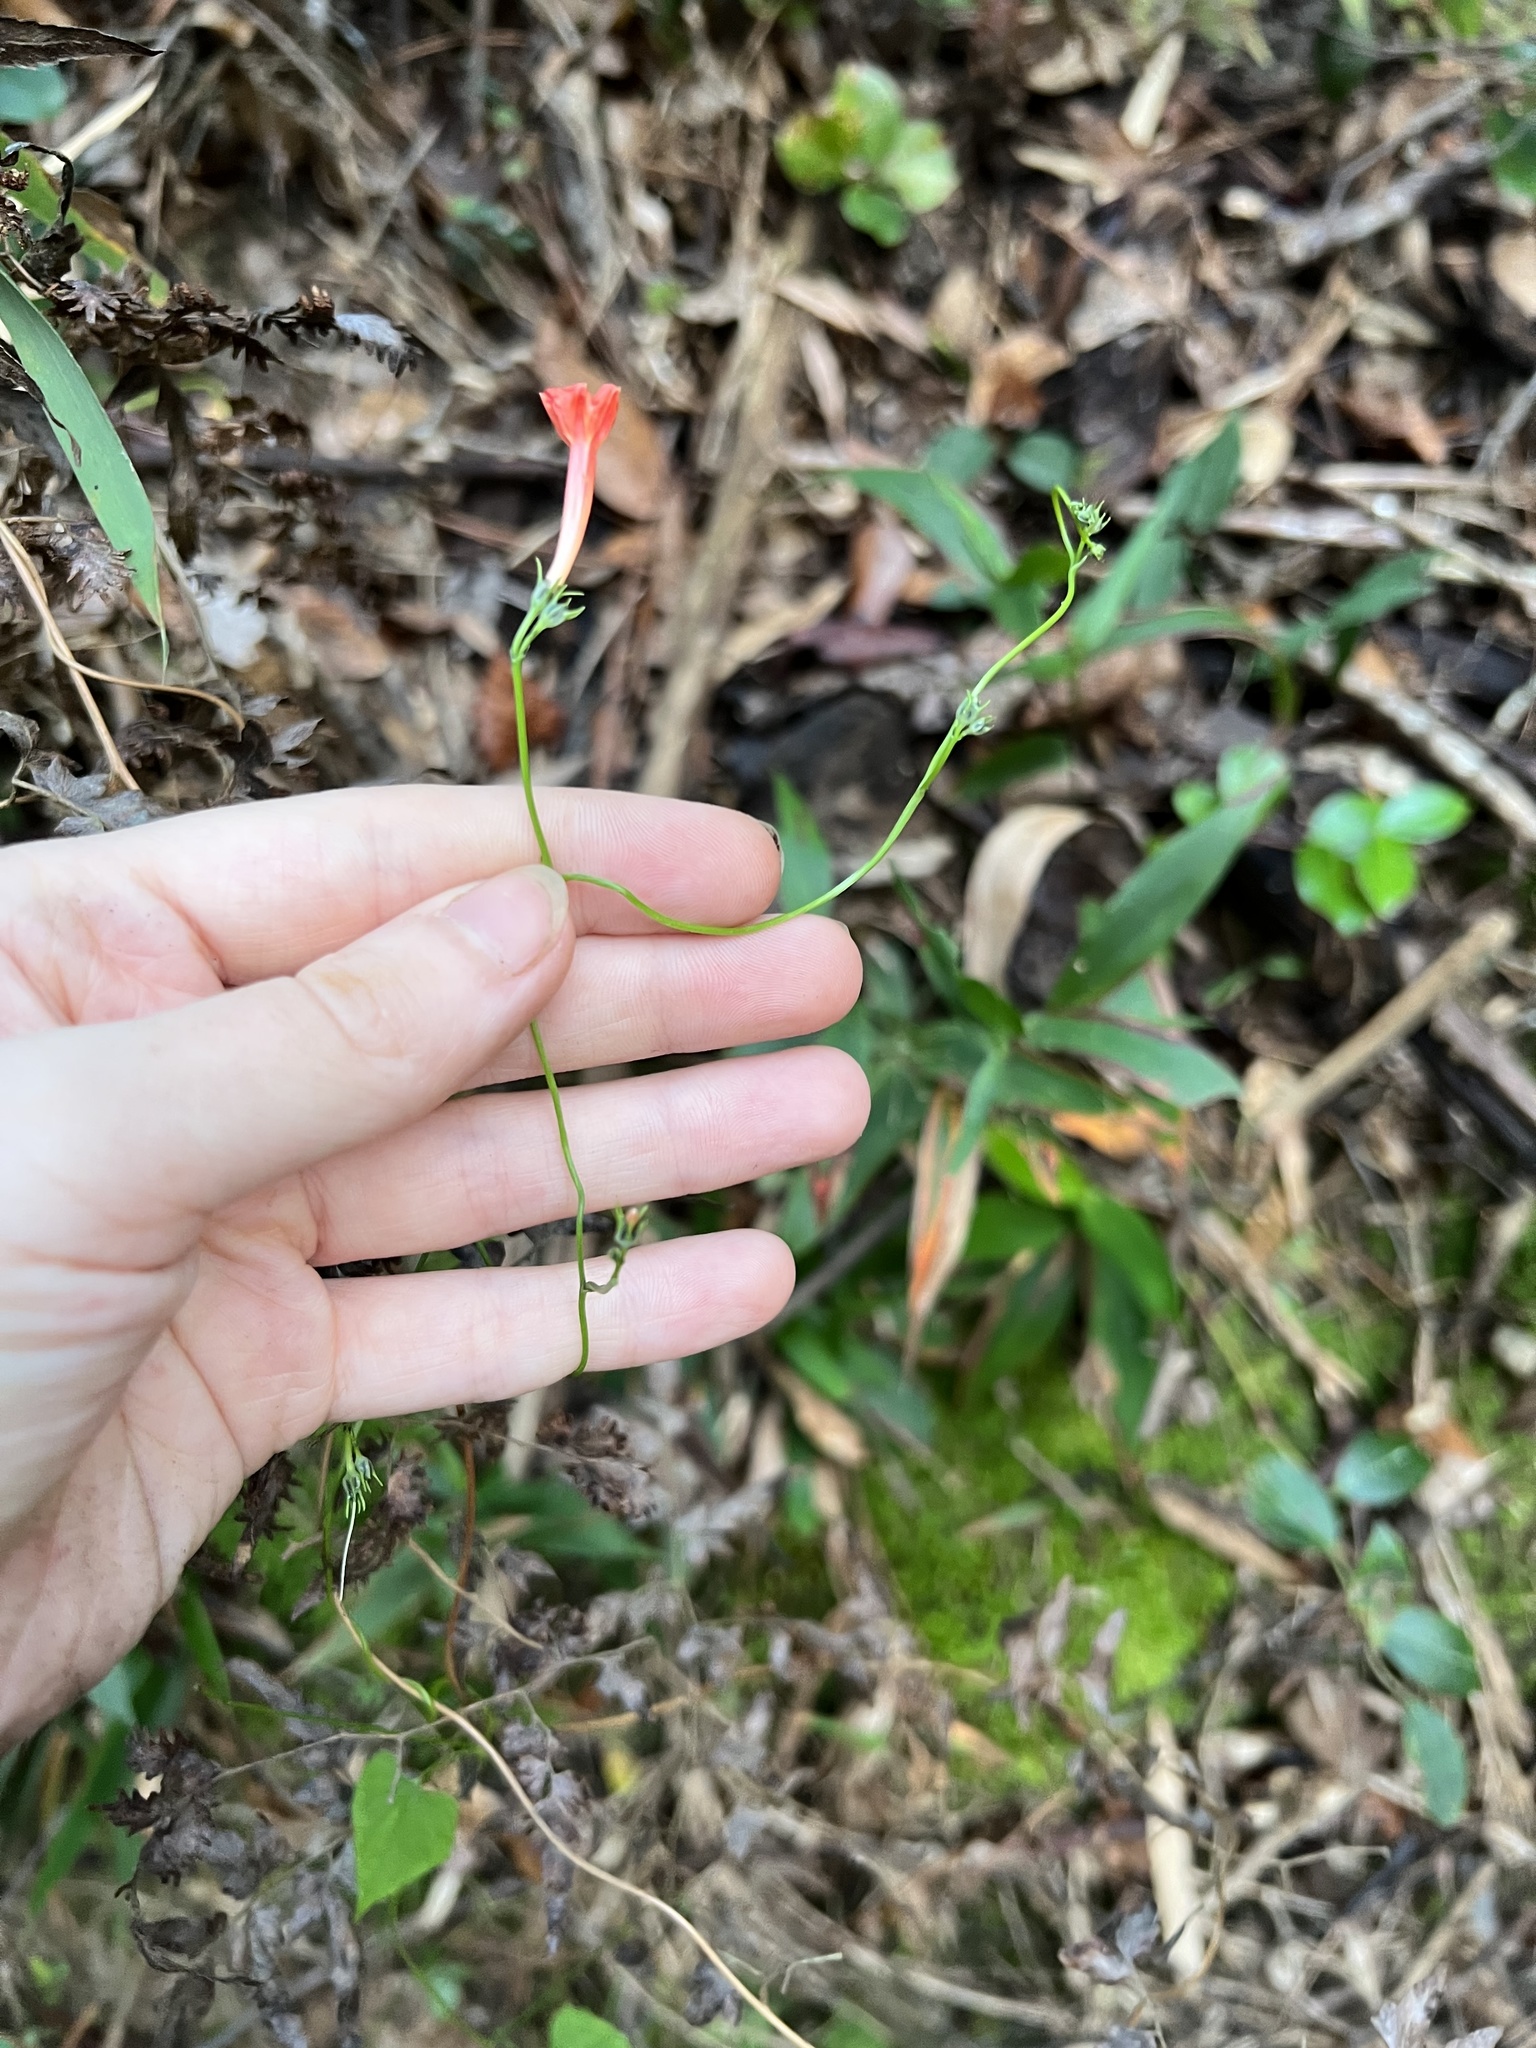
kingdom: Plantae
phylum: Tracheophyta
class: Magnoliopsida
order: Solanales
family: Convolvulaceae
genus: Ipomoea
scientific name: Ipomoea hederifolia
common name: Ivy-leaf morning-glory
